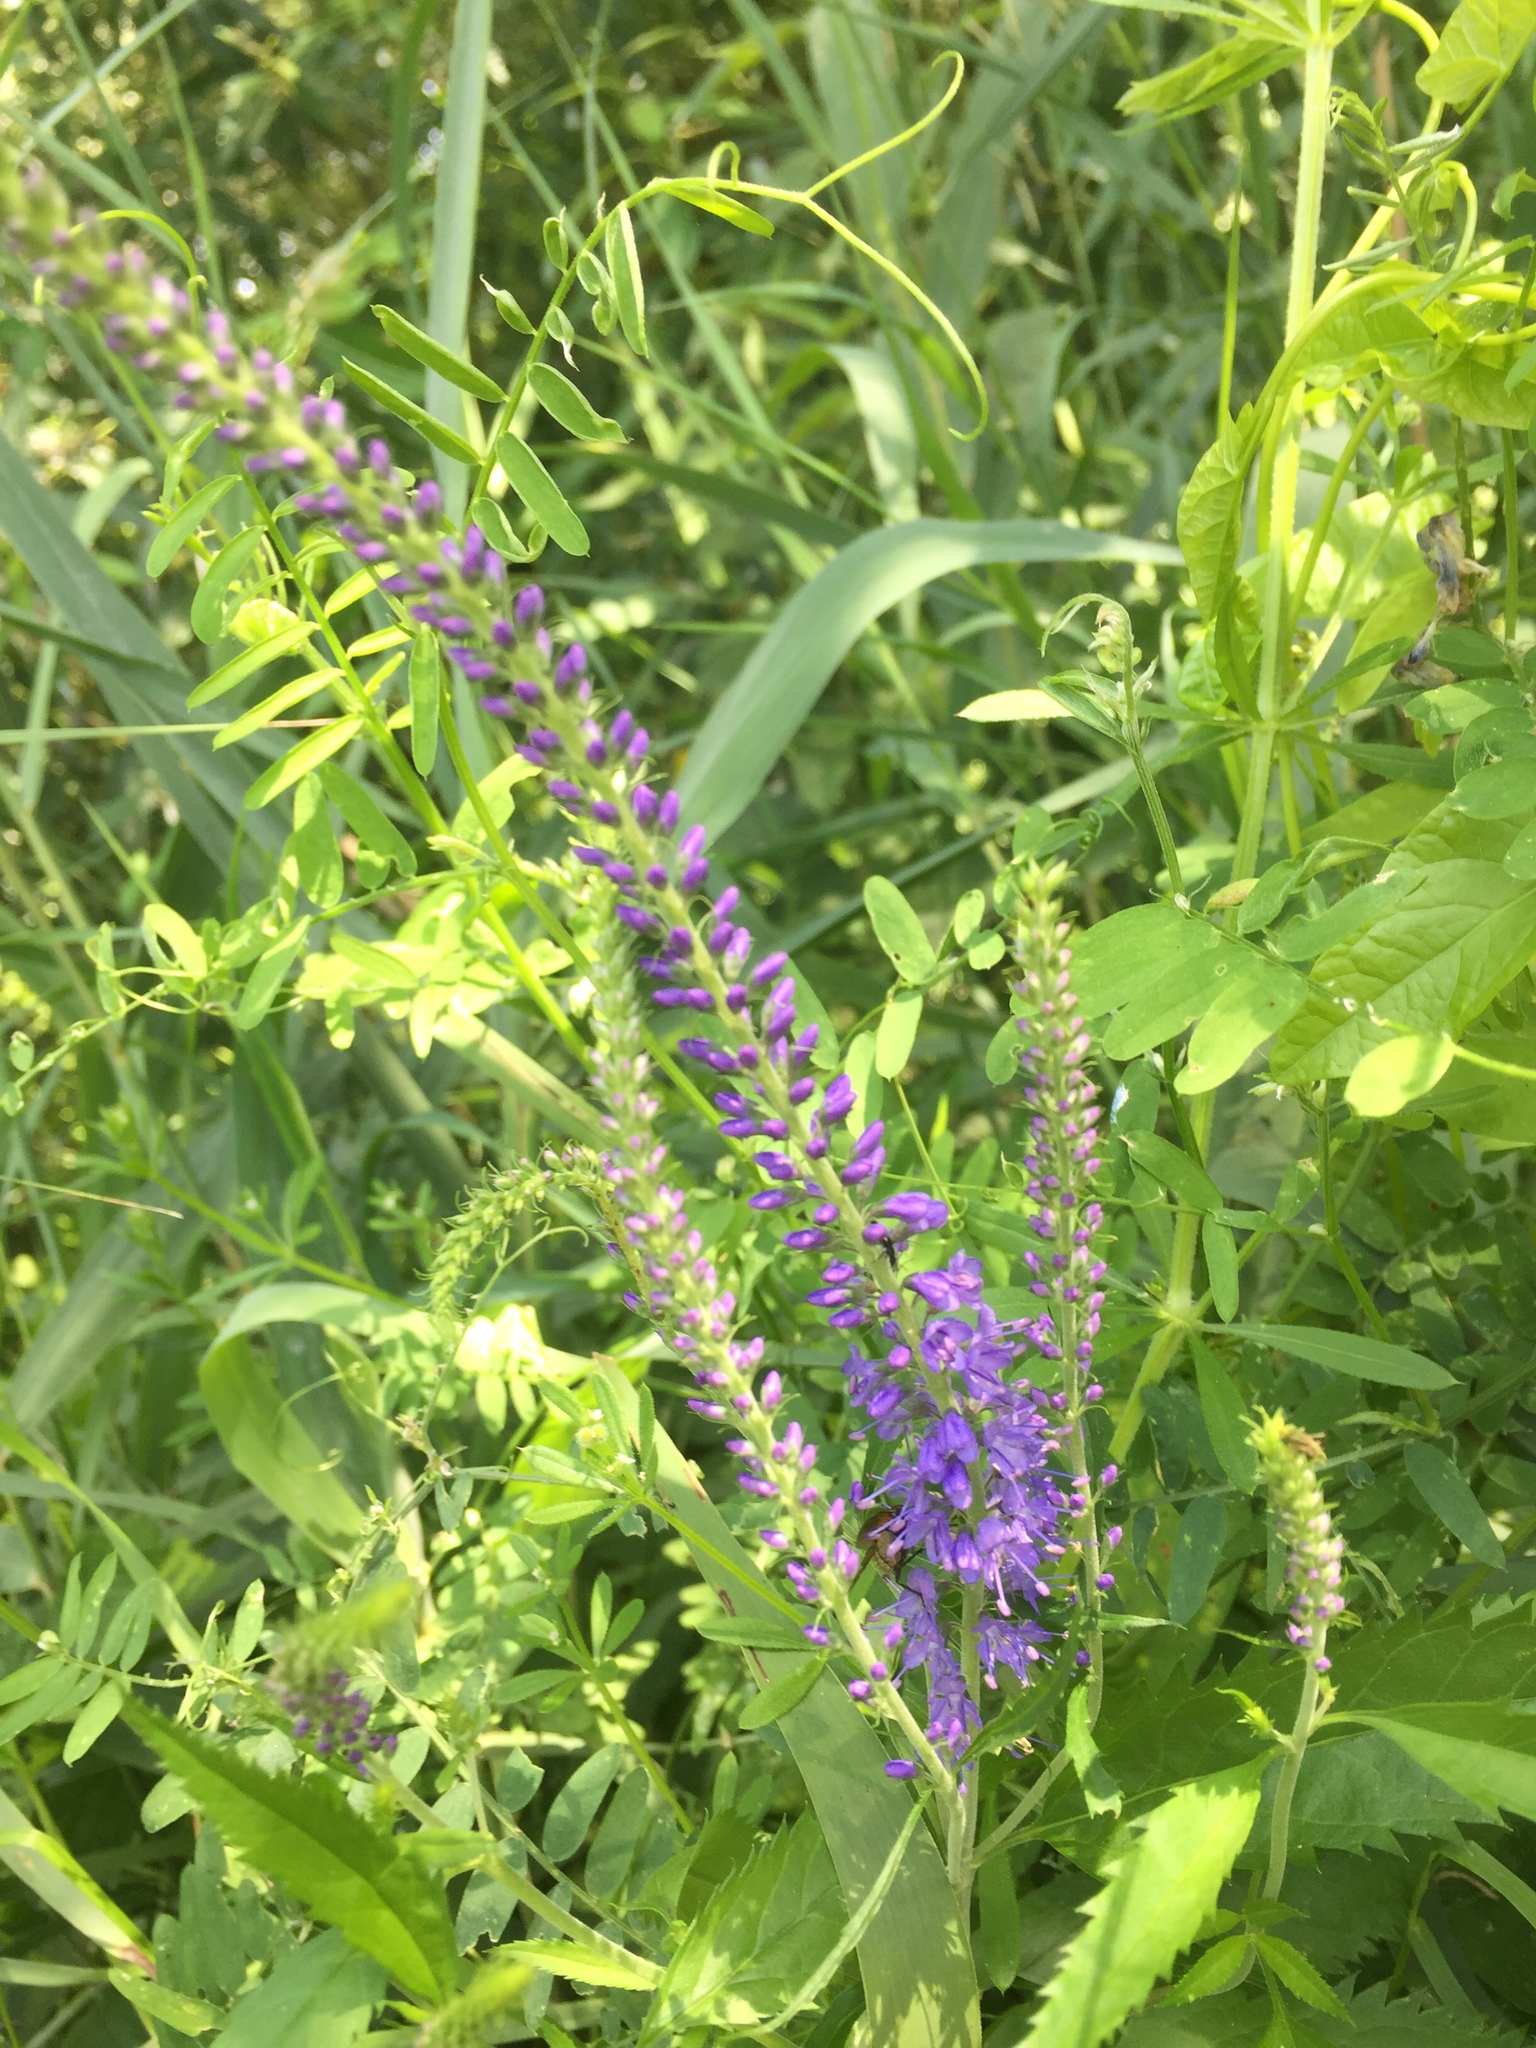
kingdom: Plantae
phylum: Tracheophyta
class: Magnoliopsida
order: Lamiales
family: Plantaginaceae
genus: Veronica
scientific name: Veronica longifolia
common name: Garden speedwell
